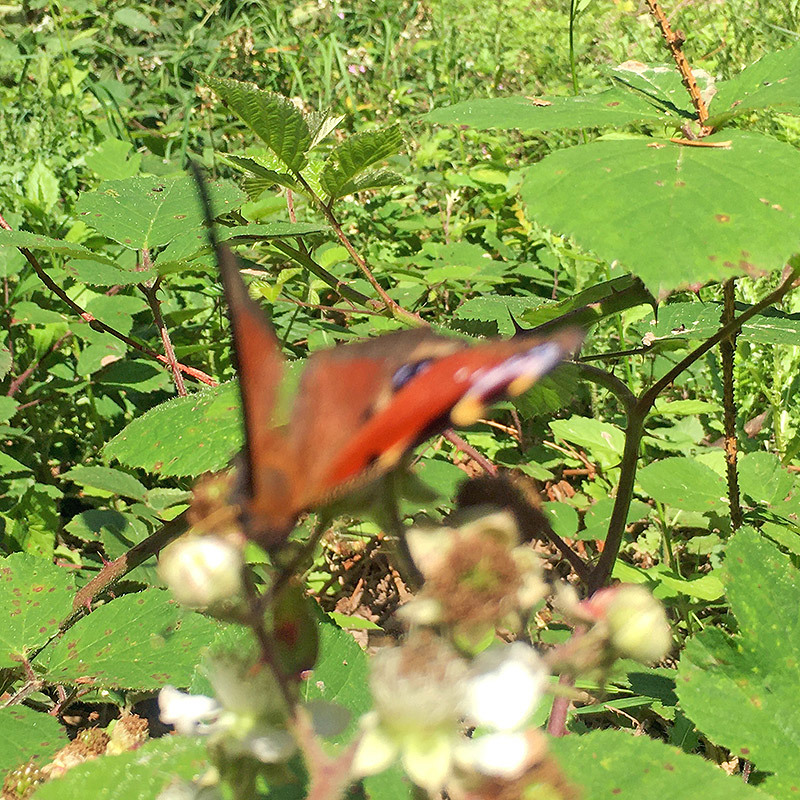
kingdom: Animalia
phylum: Arthropoda
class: Insecta
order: Lepidoptera
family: Nymphalidae
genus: Aglais
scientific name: Aglais io
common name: Peacock
